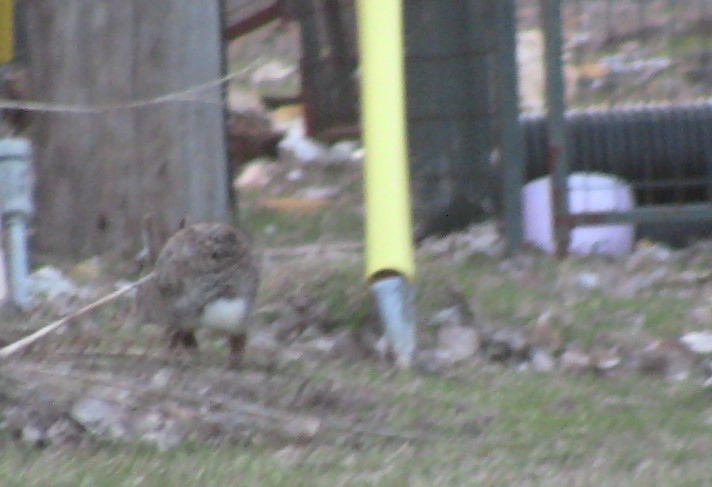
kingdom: Animalia
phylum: Chordata
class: Mammalia
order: Lagomorpha
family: Leporidae
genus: Sylvilagus
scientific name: Sylvilagus floridanus
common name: Eastern cottontail
